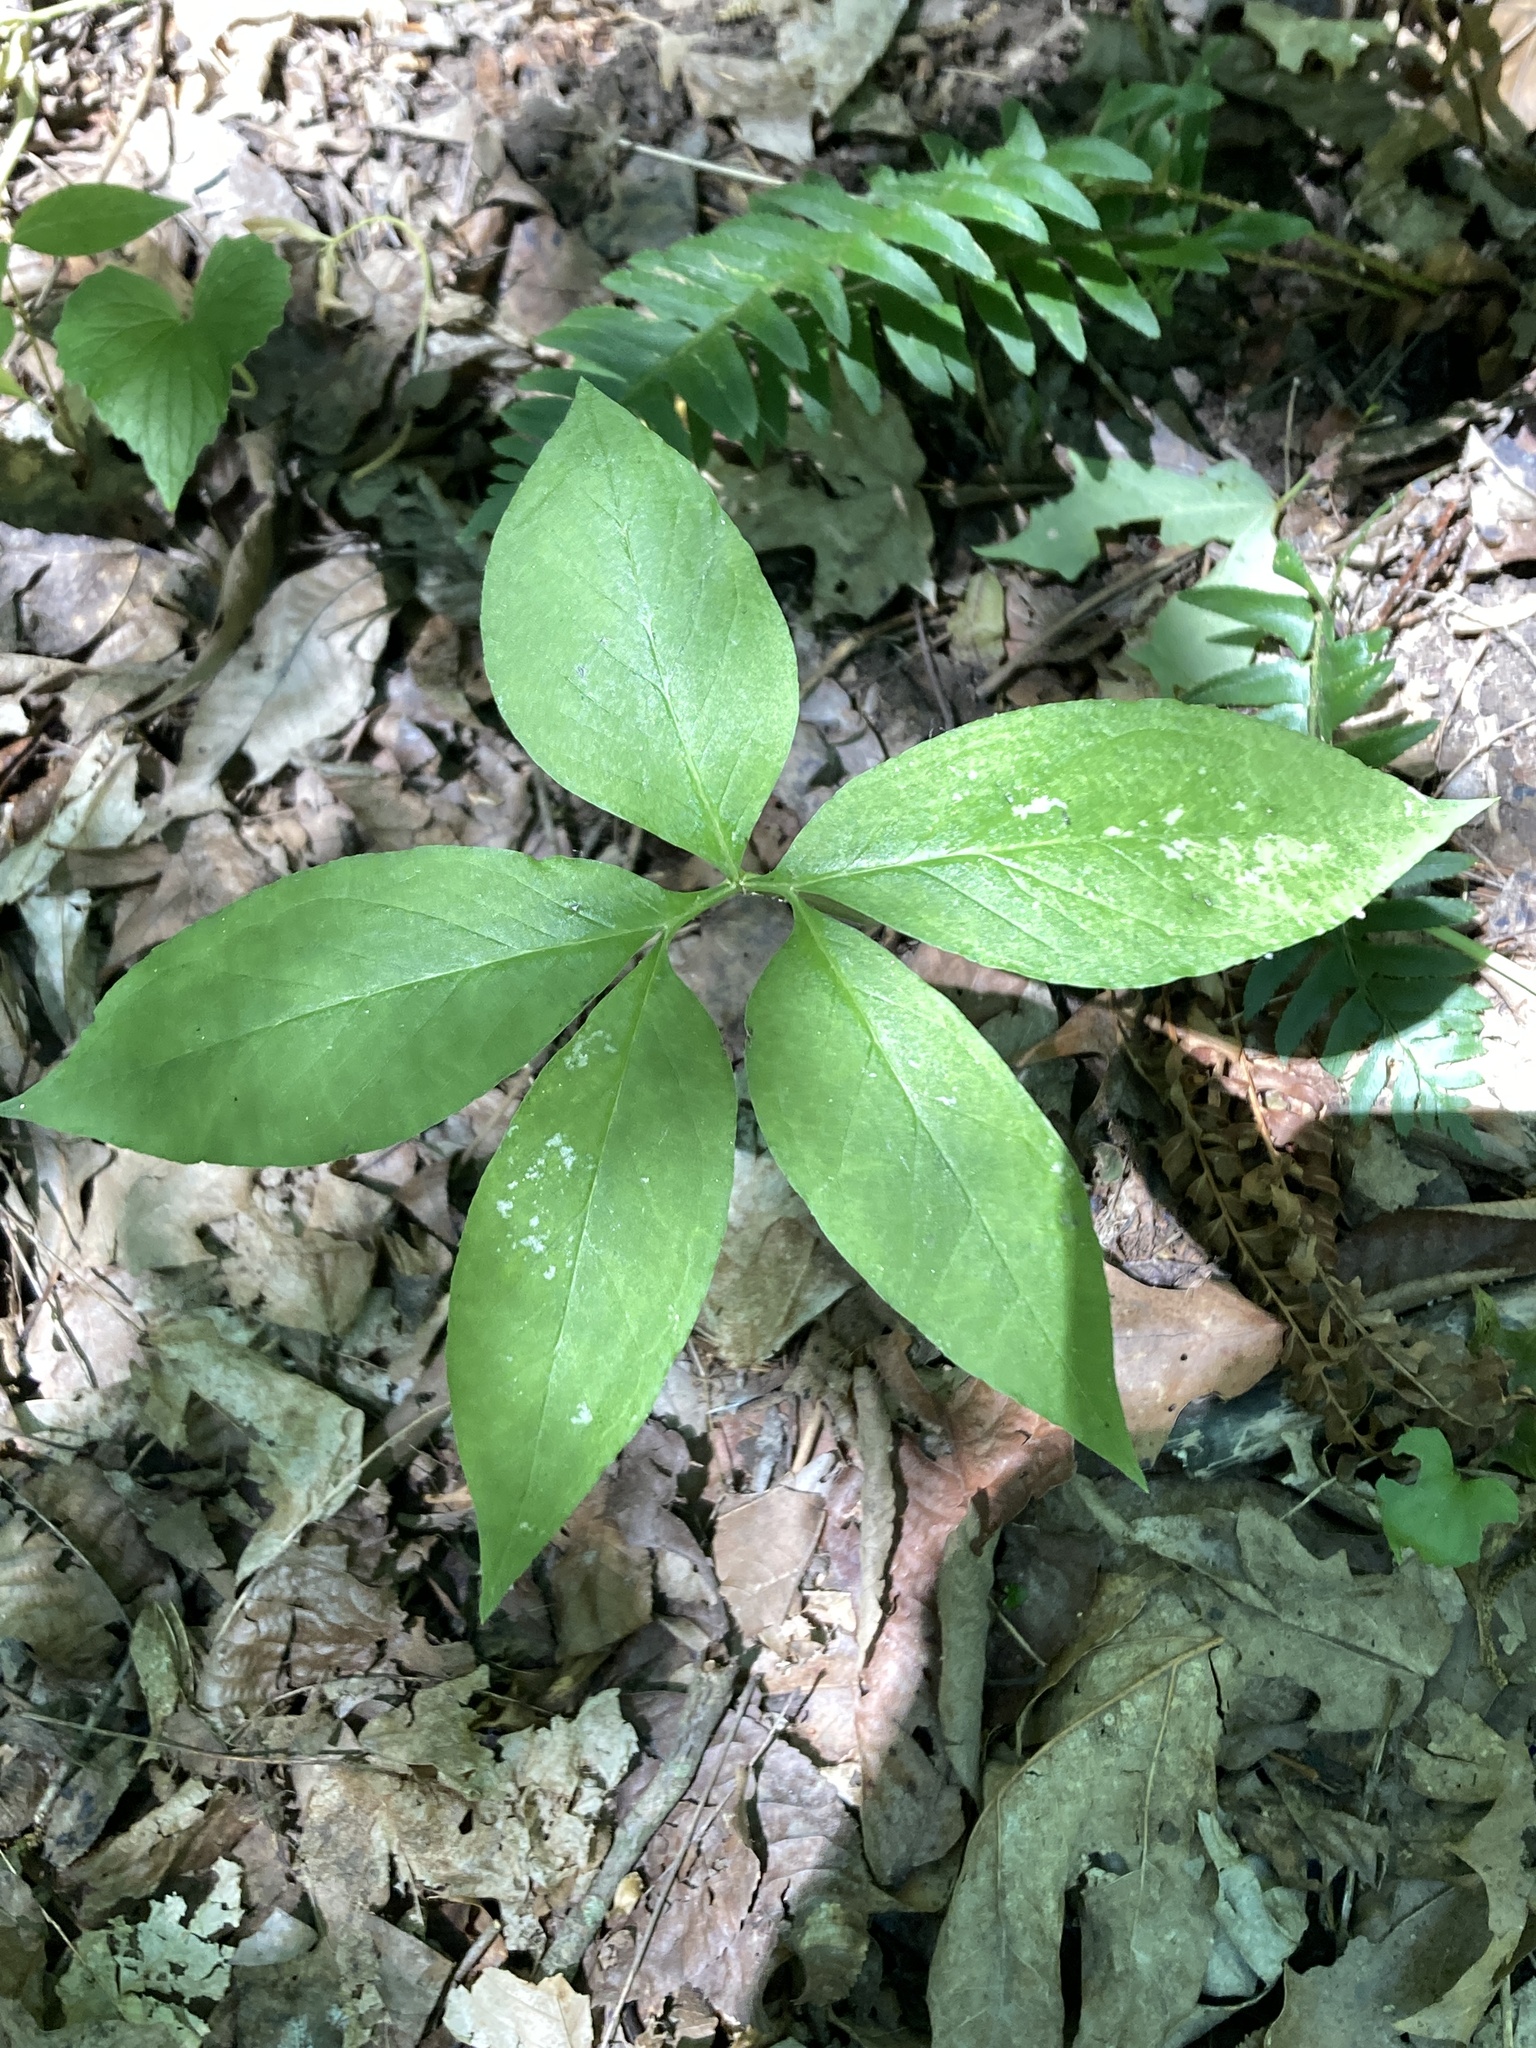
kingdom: Plantae
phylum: Tracheophyta
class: Liliopsida
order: Alismatales
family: Araceae
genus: Arisaema
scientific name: Arisaema dracontium
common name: Dragon-arum
